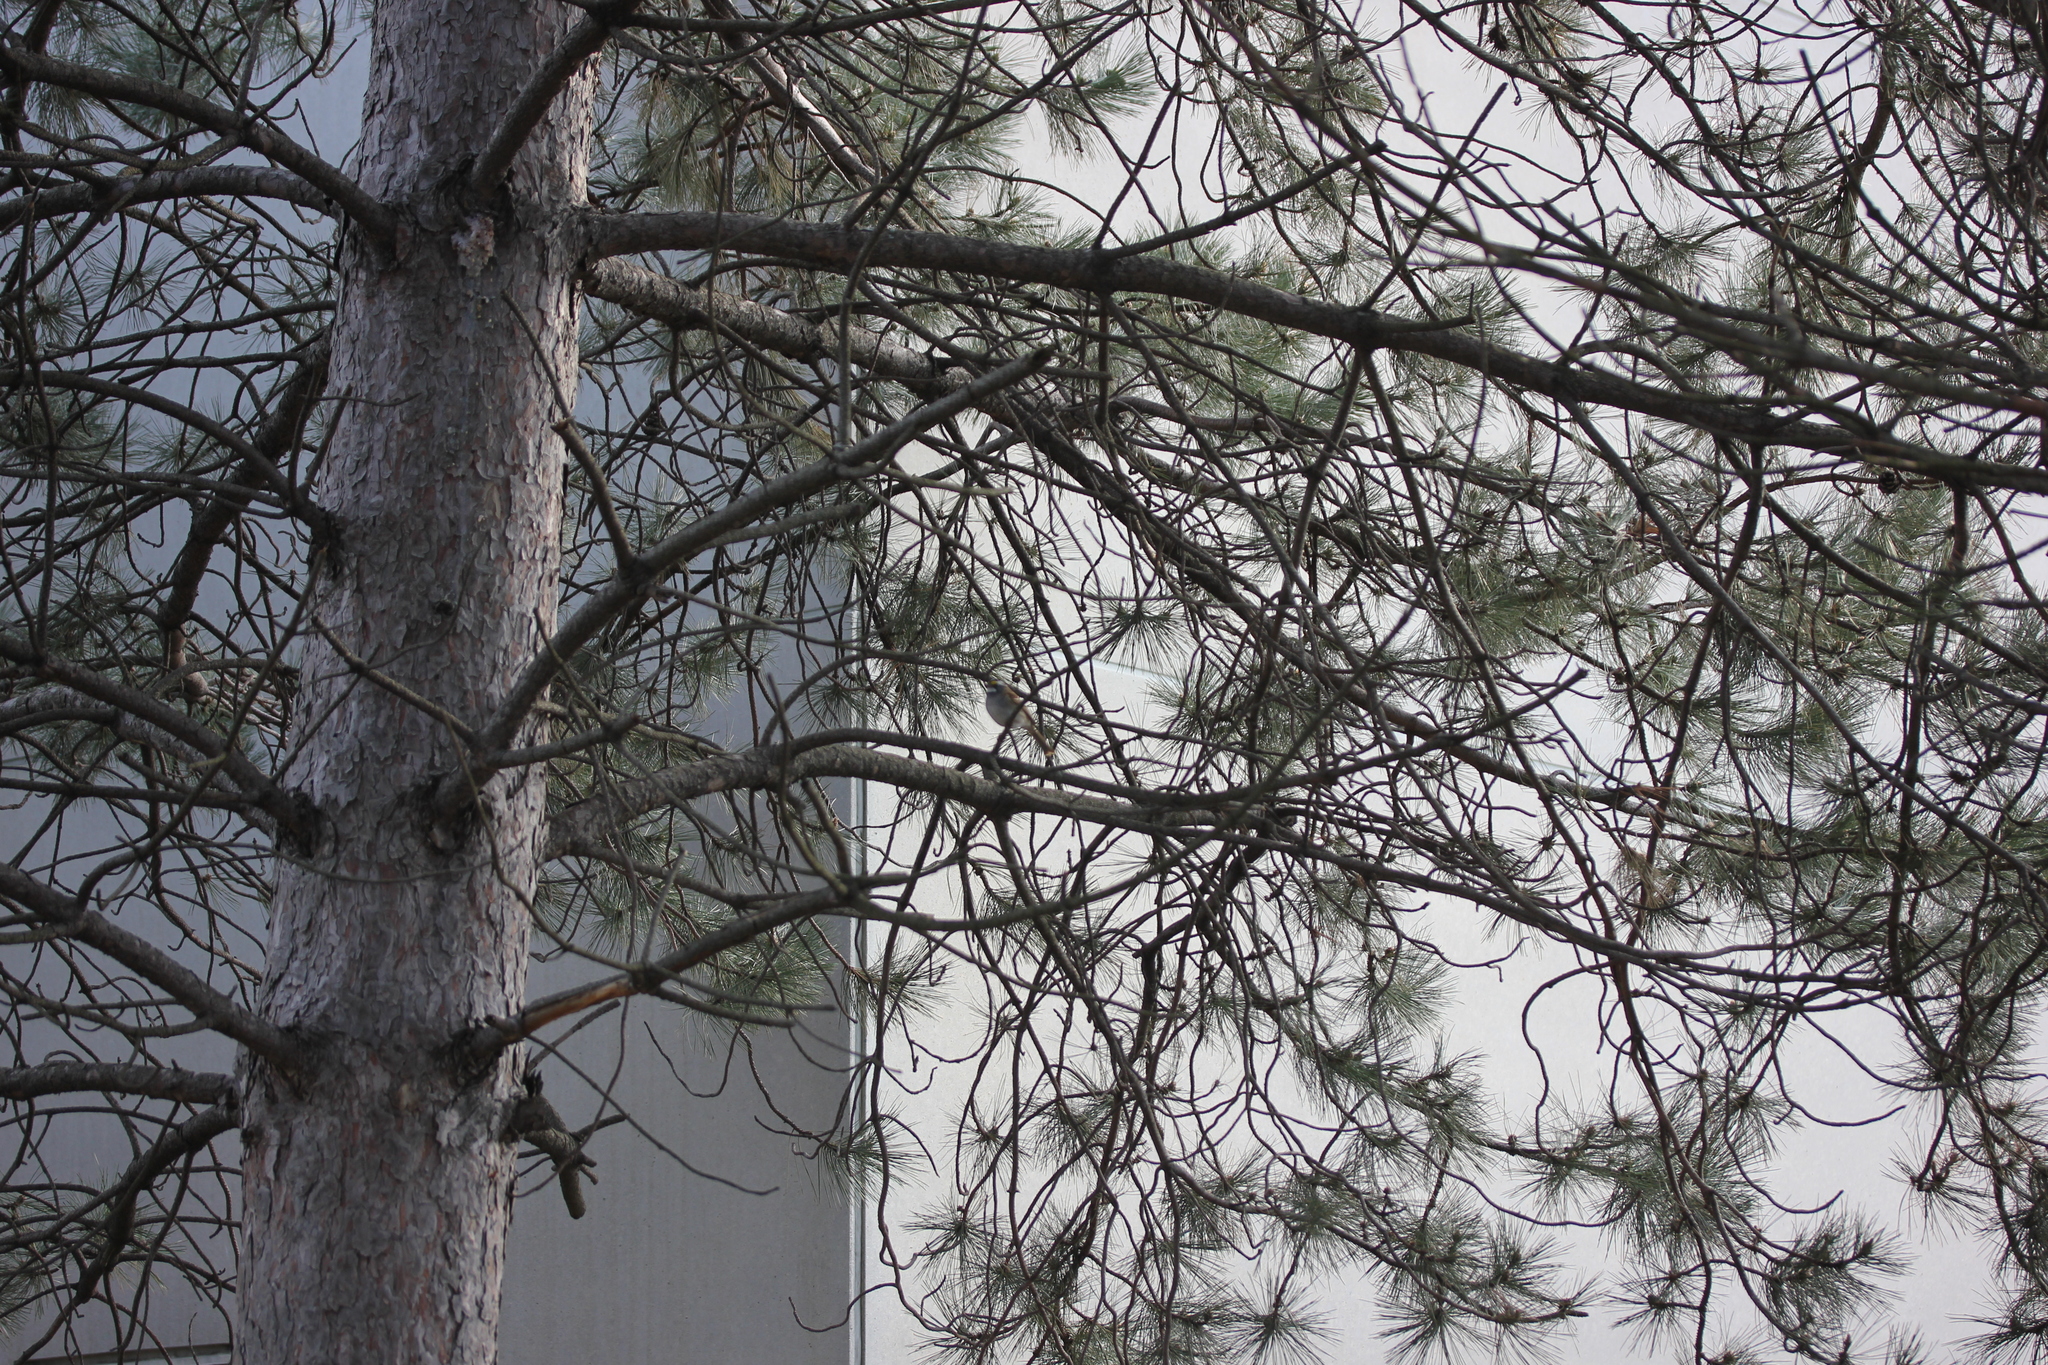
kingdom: Plantae
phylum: Tracheophyta
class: Pinopsida
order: Pinales
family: Pinaceae
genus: Pinus
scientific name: Pinus strobus
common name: Weymouth pine
